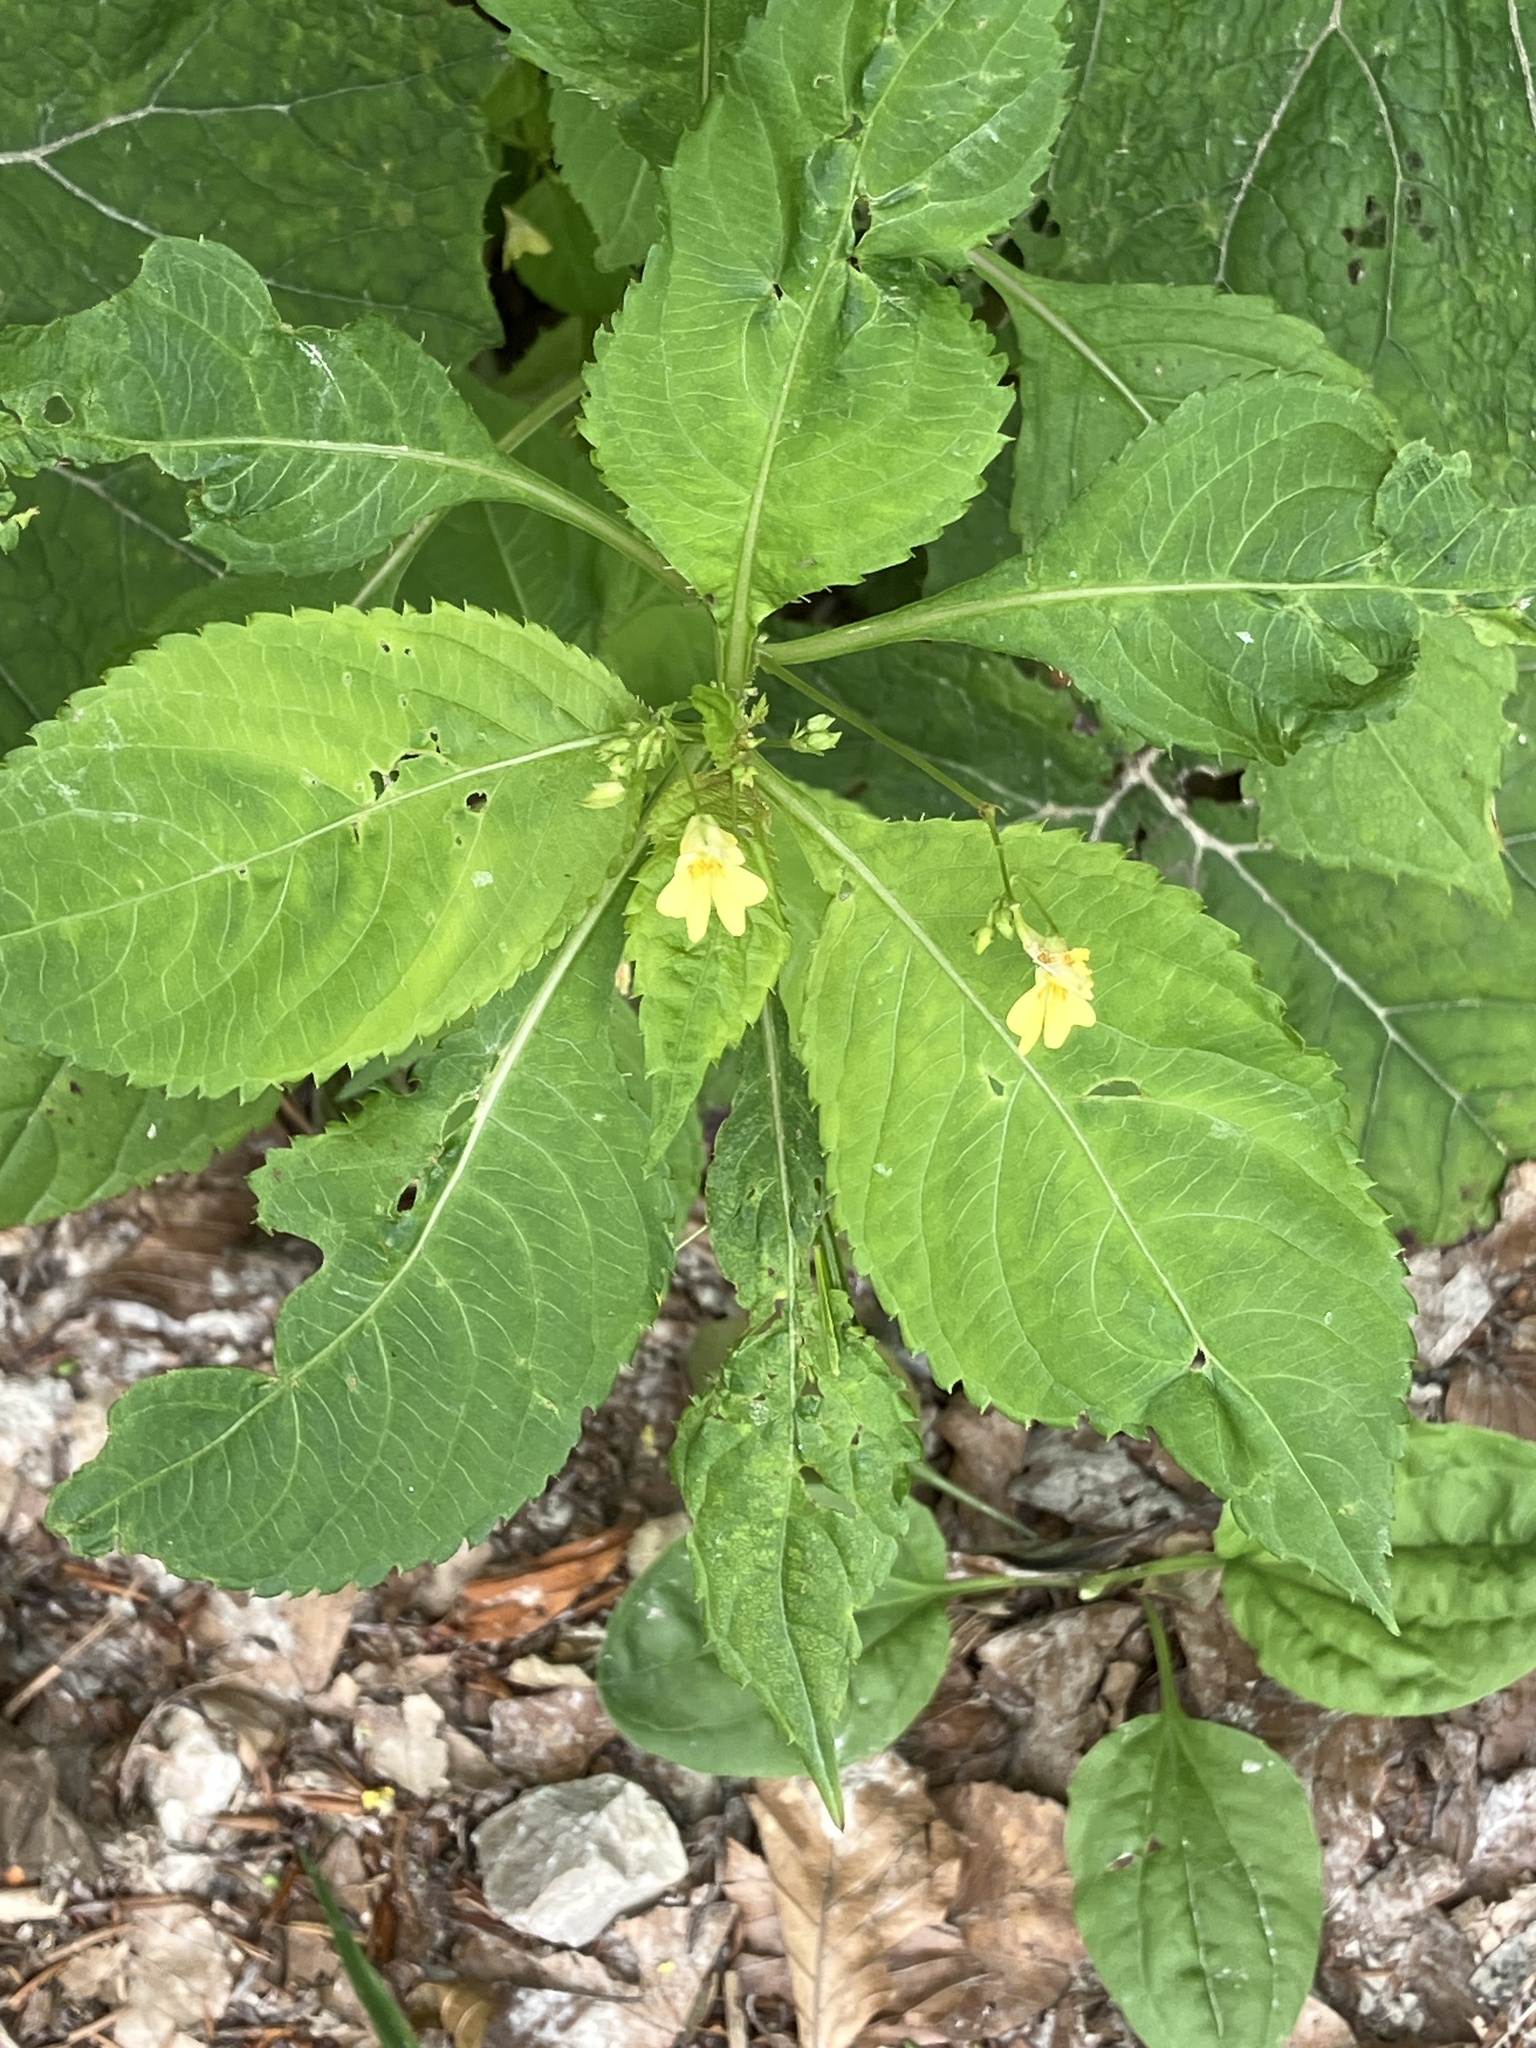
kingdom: Plantae
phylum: Tracheophyta
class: Magnoliopsida
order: Ericales
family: Balsaminaceae
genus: Impatiens
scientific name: Impatiens parviflora
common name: Small balsam
